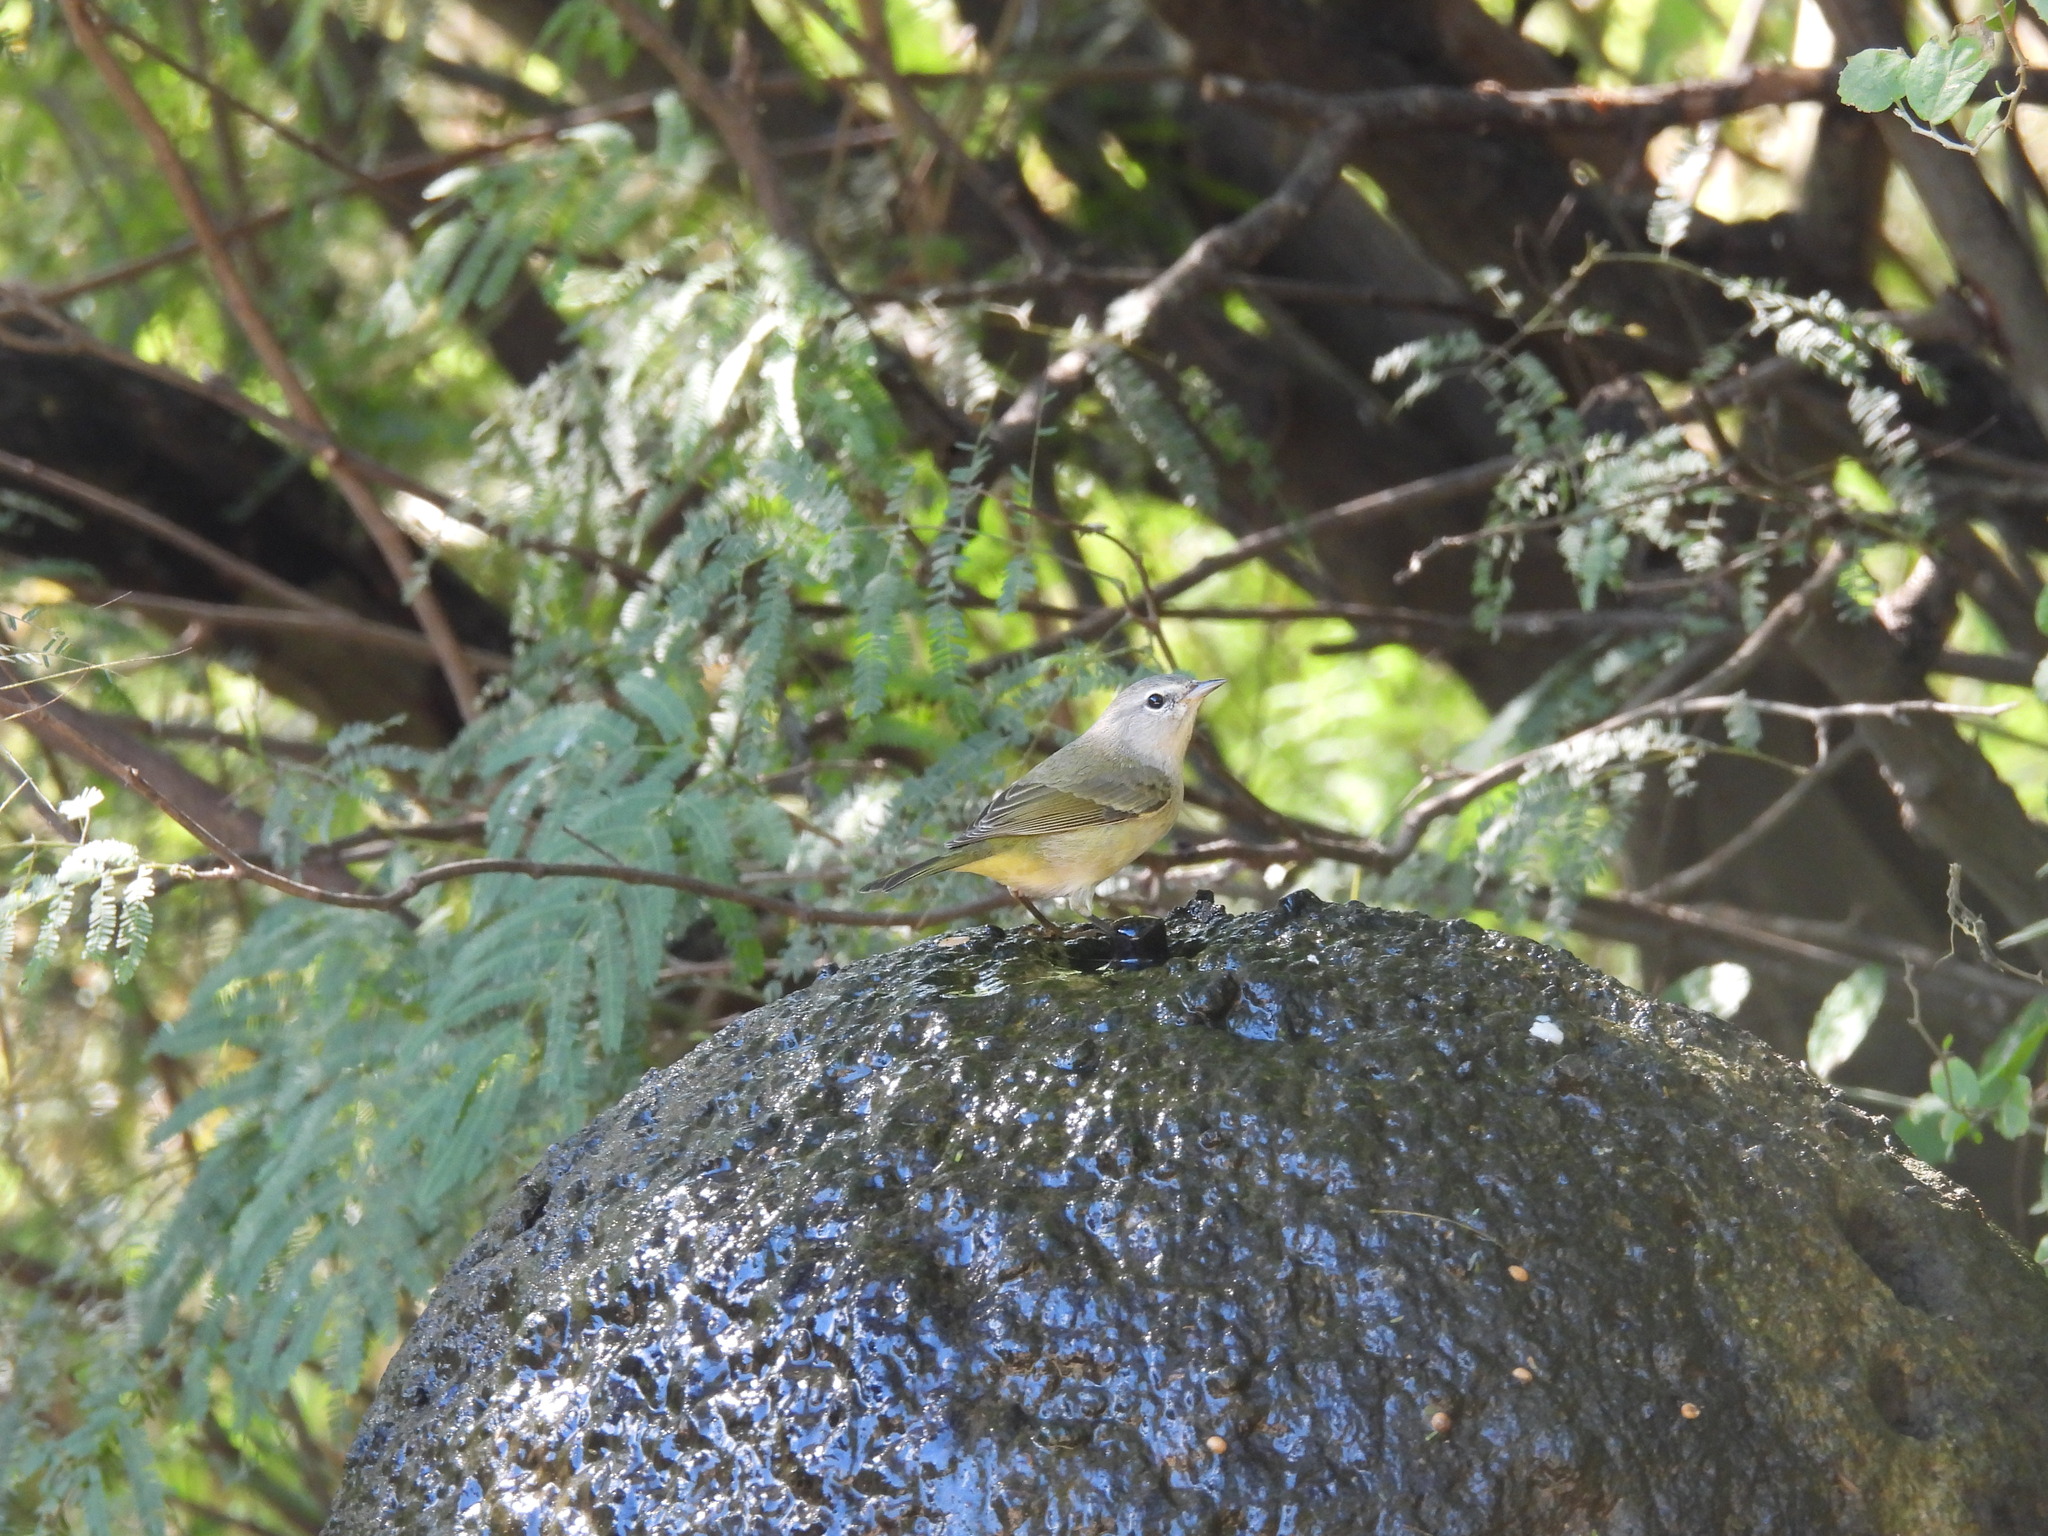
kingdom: Animalia
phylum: Chordata
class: Aves
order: Passeriformes
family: Parulidae
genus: Leiothlypis
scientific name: Leiothlypis celata
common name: Orange-crowned warbler
